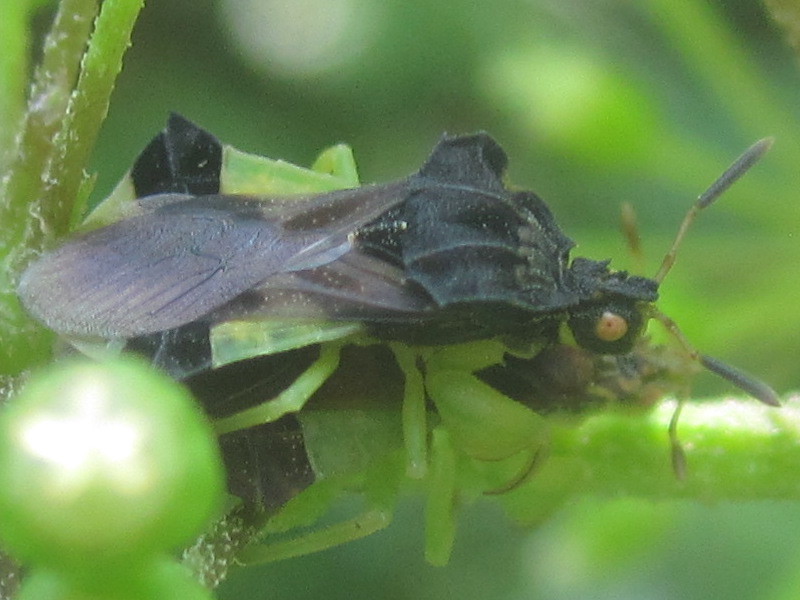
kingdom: Animalia
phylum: Arthropoda
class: Insecta
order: Hemiptera
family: Reduviidae
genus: Phymata
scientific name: Phymata pennsylvanica
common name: Pennsylvania ambush bug
